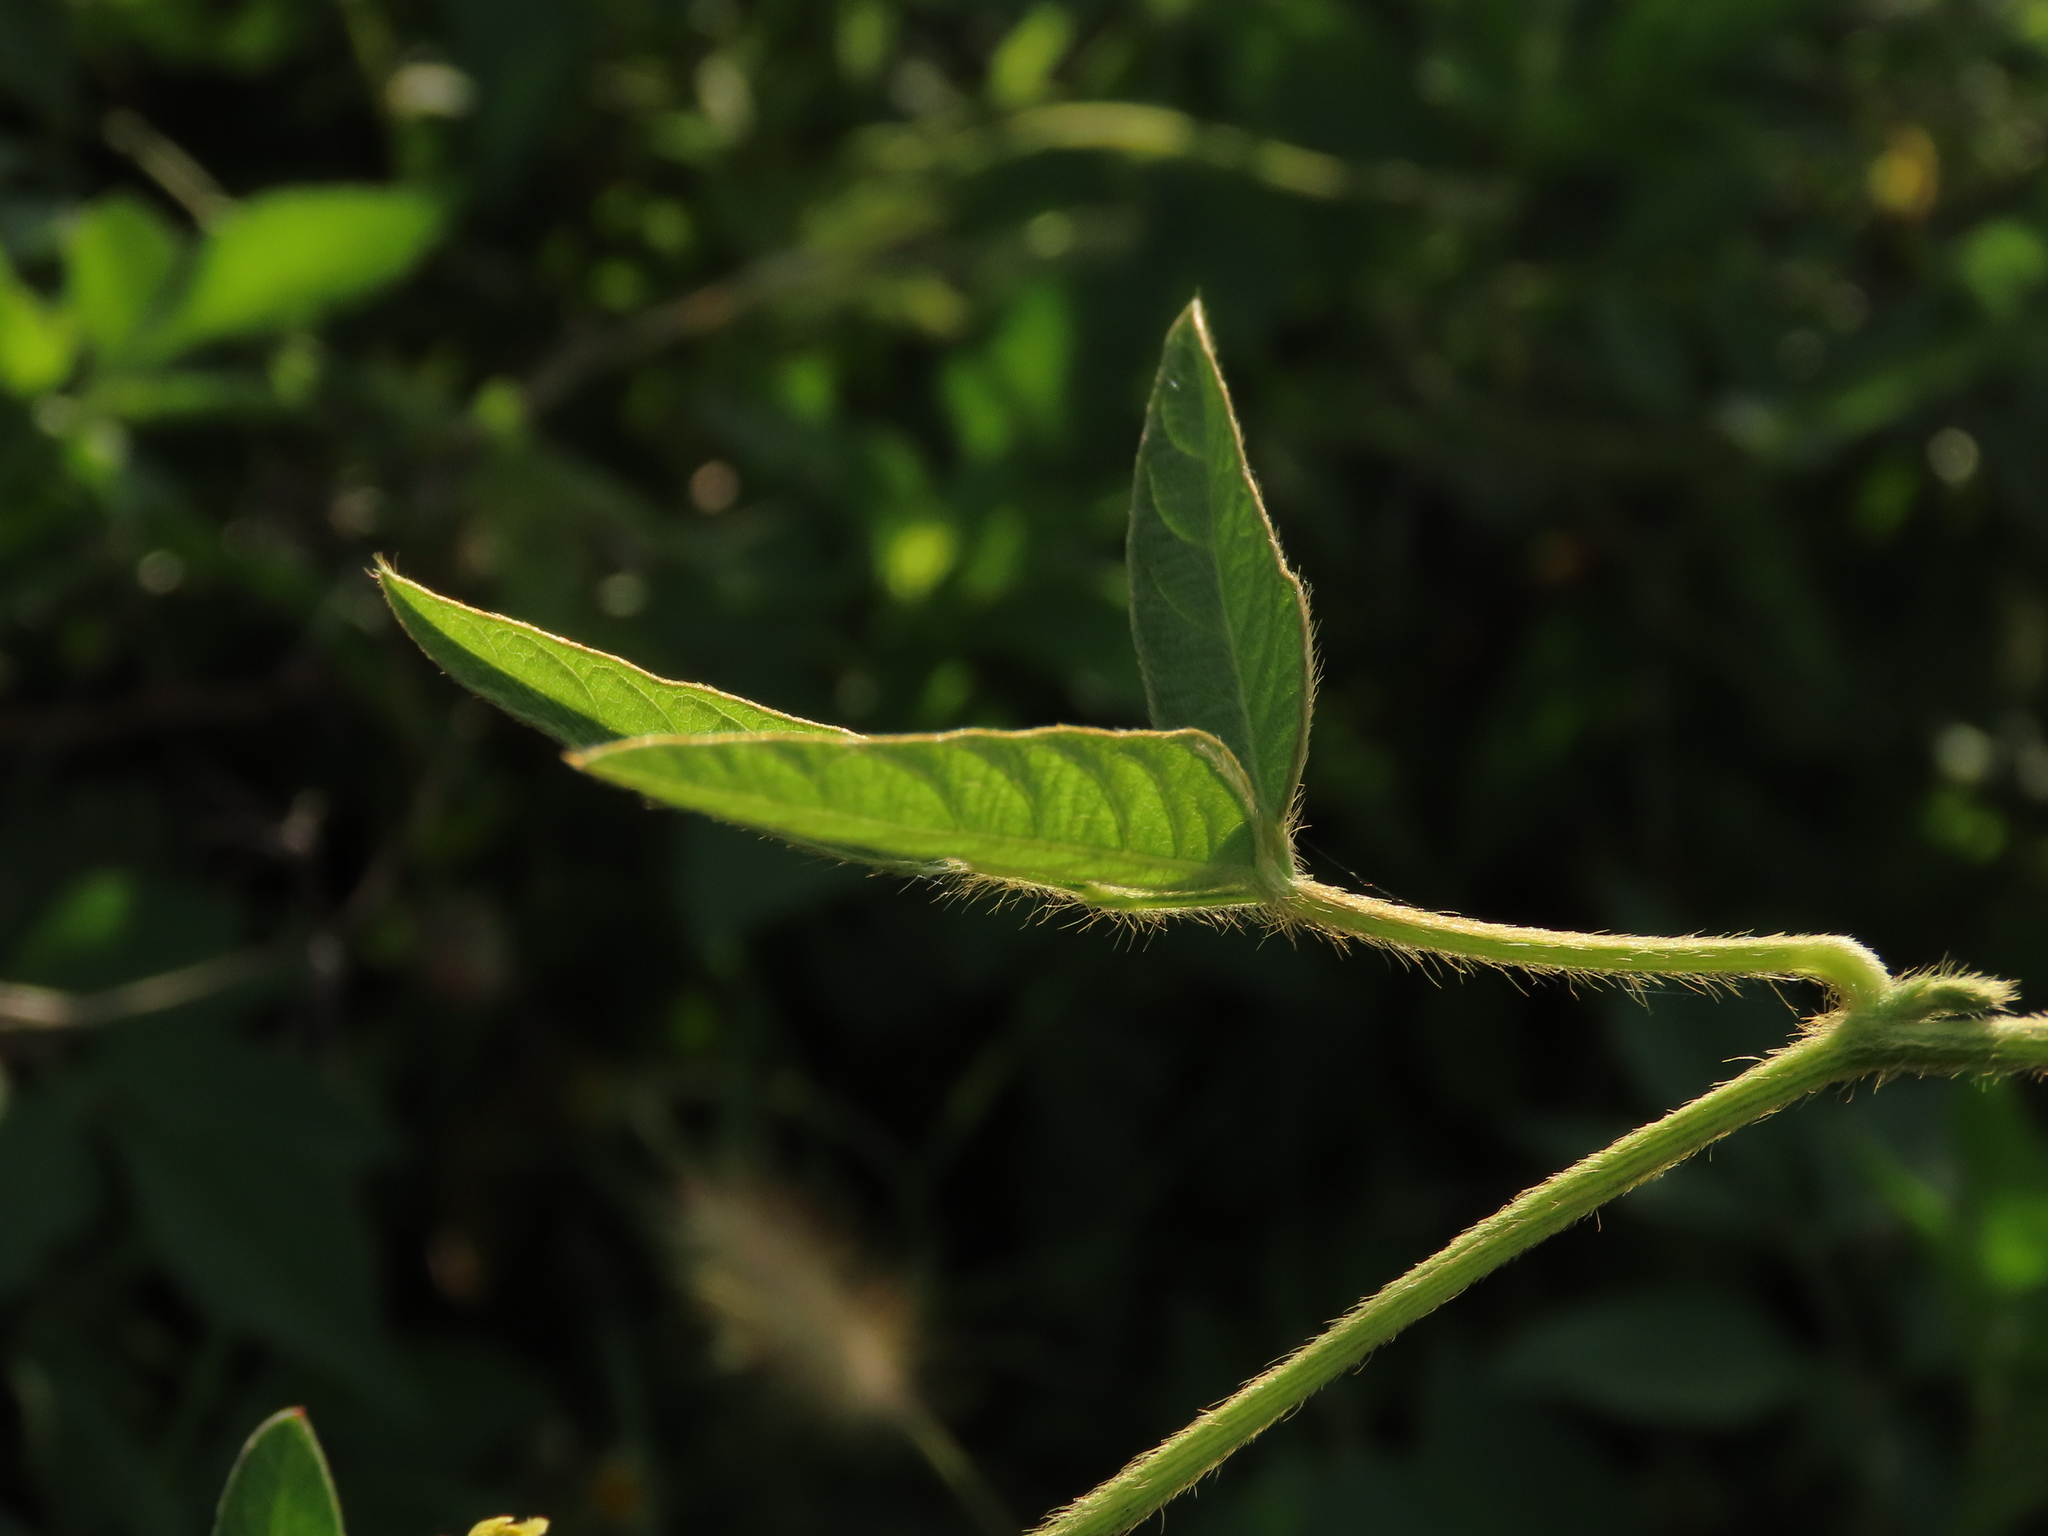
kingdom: Plantae
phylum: Tracheophyta
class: Magnoliopsida
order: Fabales
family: Fabaceae
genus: Glycine
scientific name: Glycine max
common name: Soya-bean
